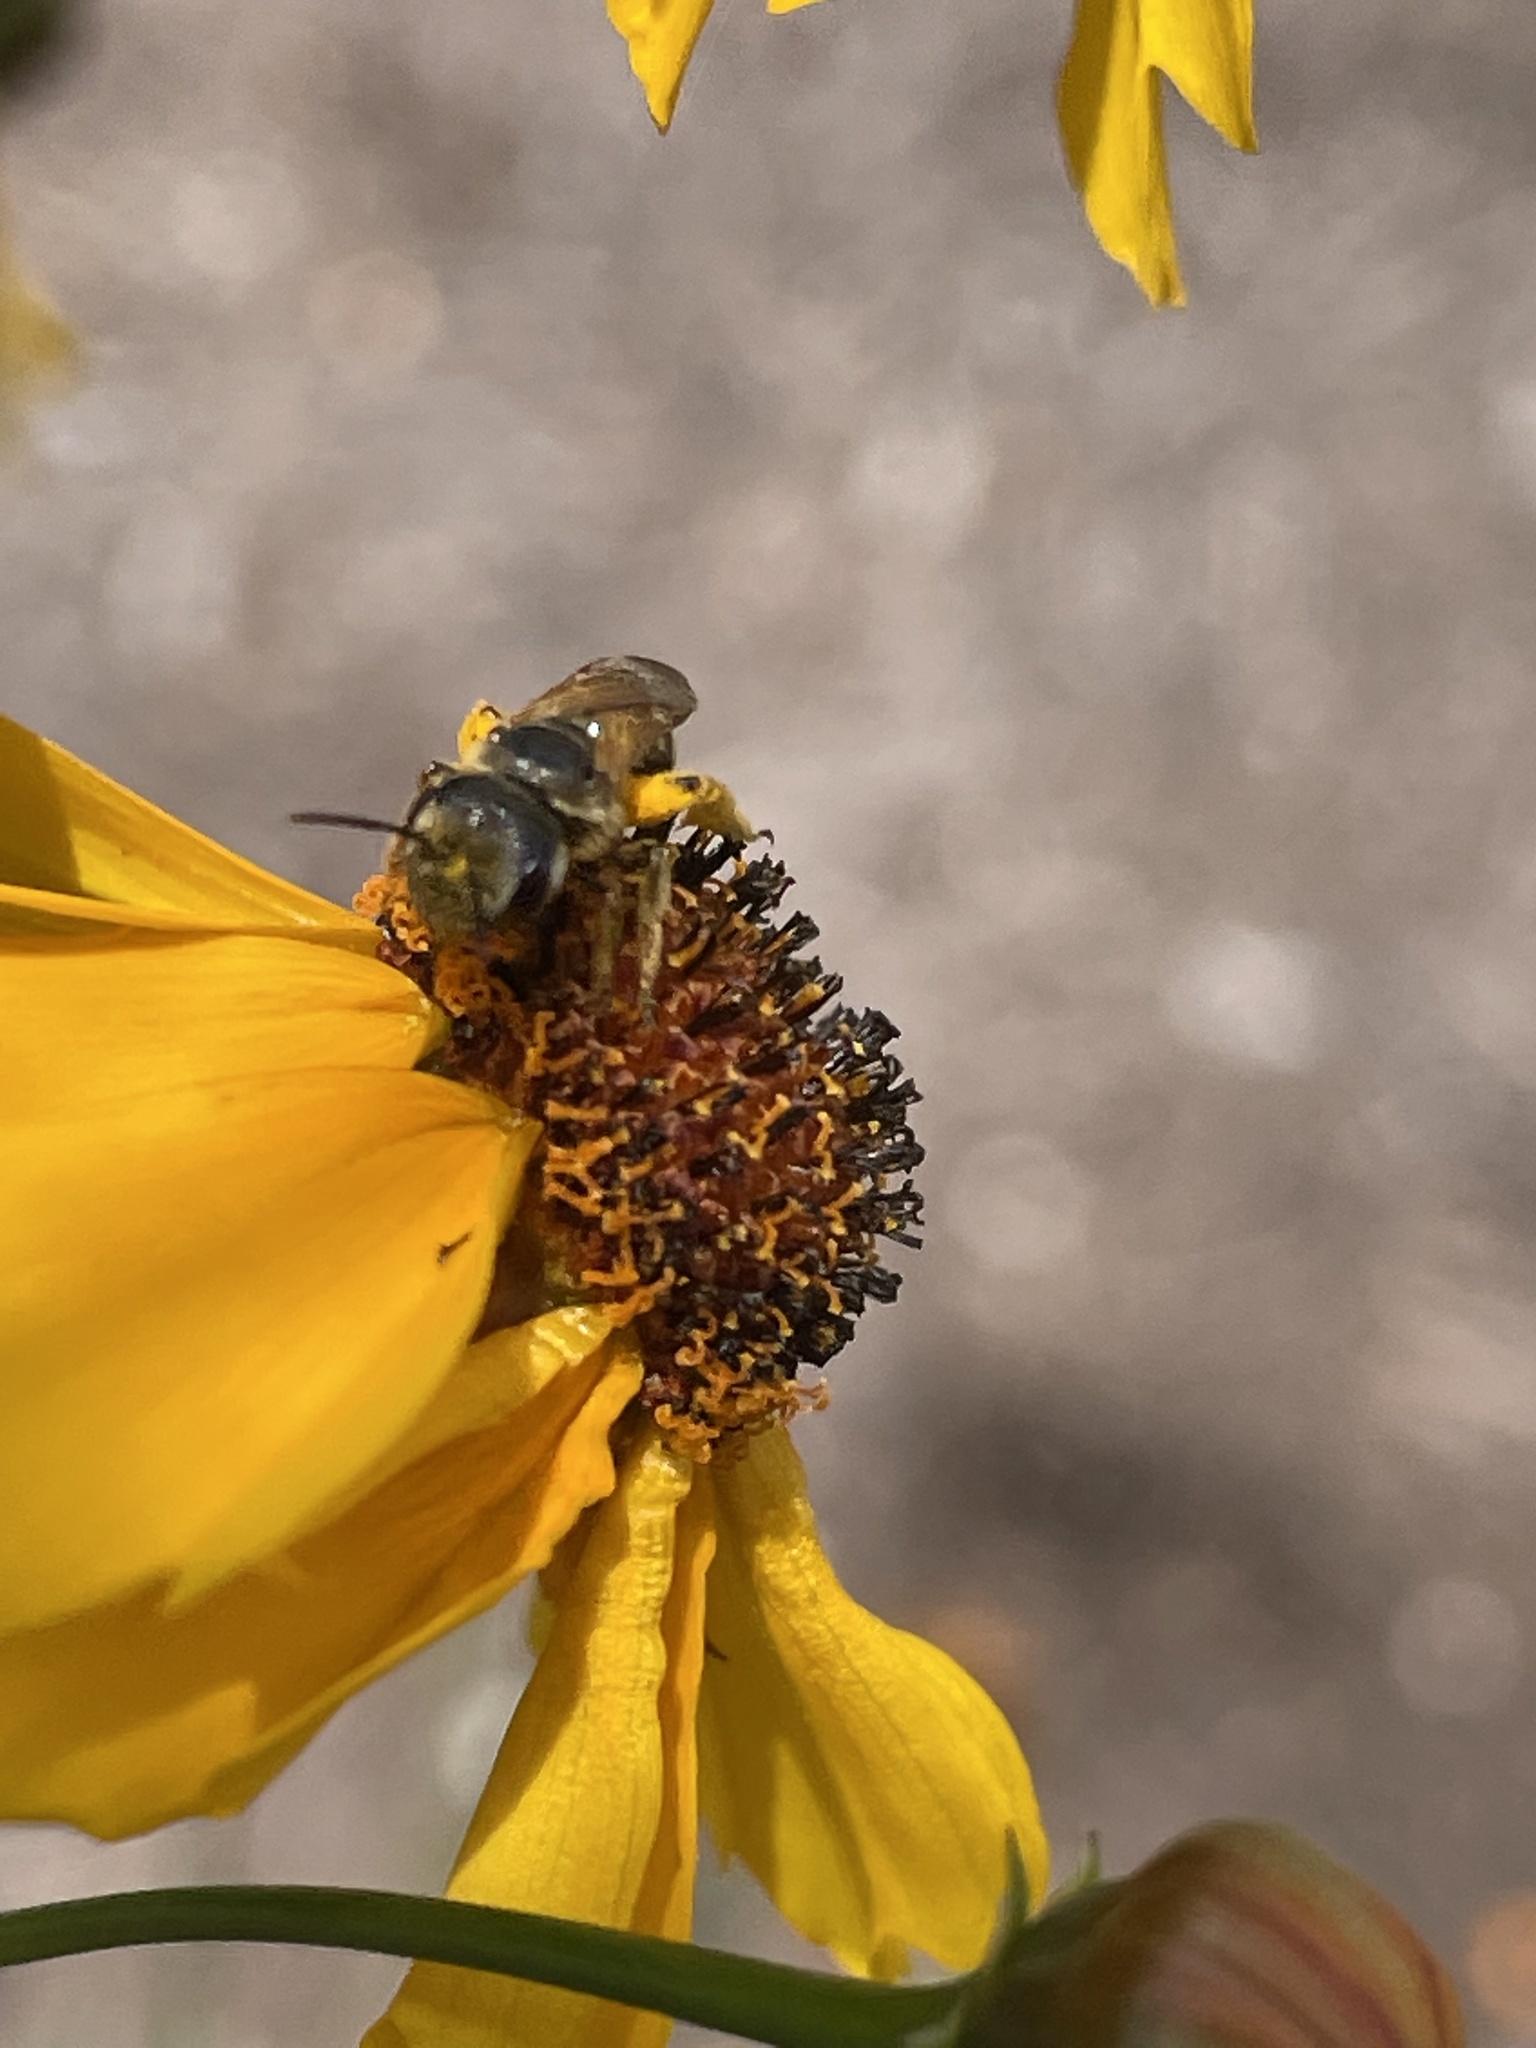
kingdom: Animalia
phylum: Arthropoda
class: Insecta
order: Hymenoptera
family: Halictidae
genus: Halictus
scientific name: Halictus ligatus
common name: Ligated furrow bee
